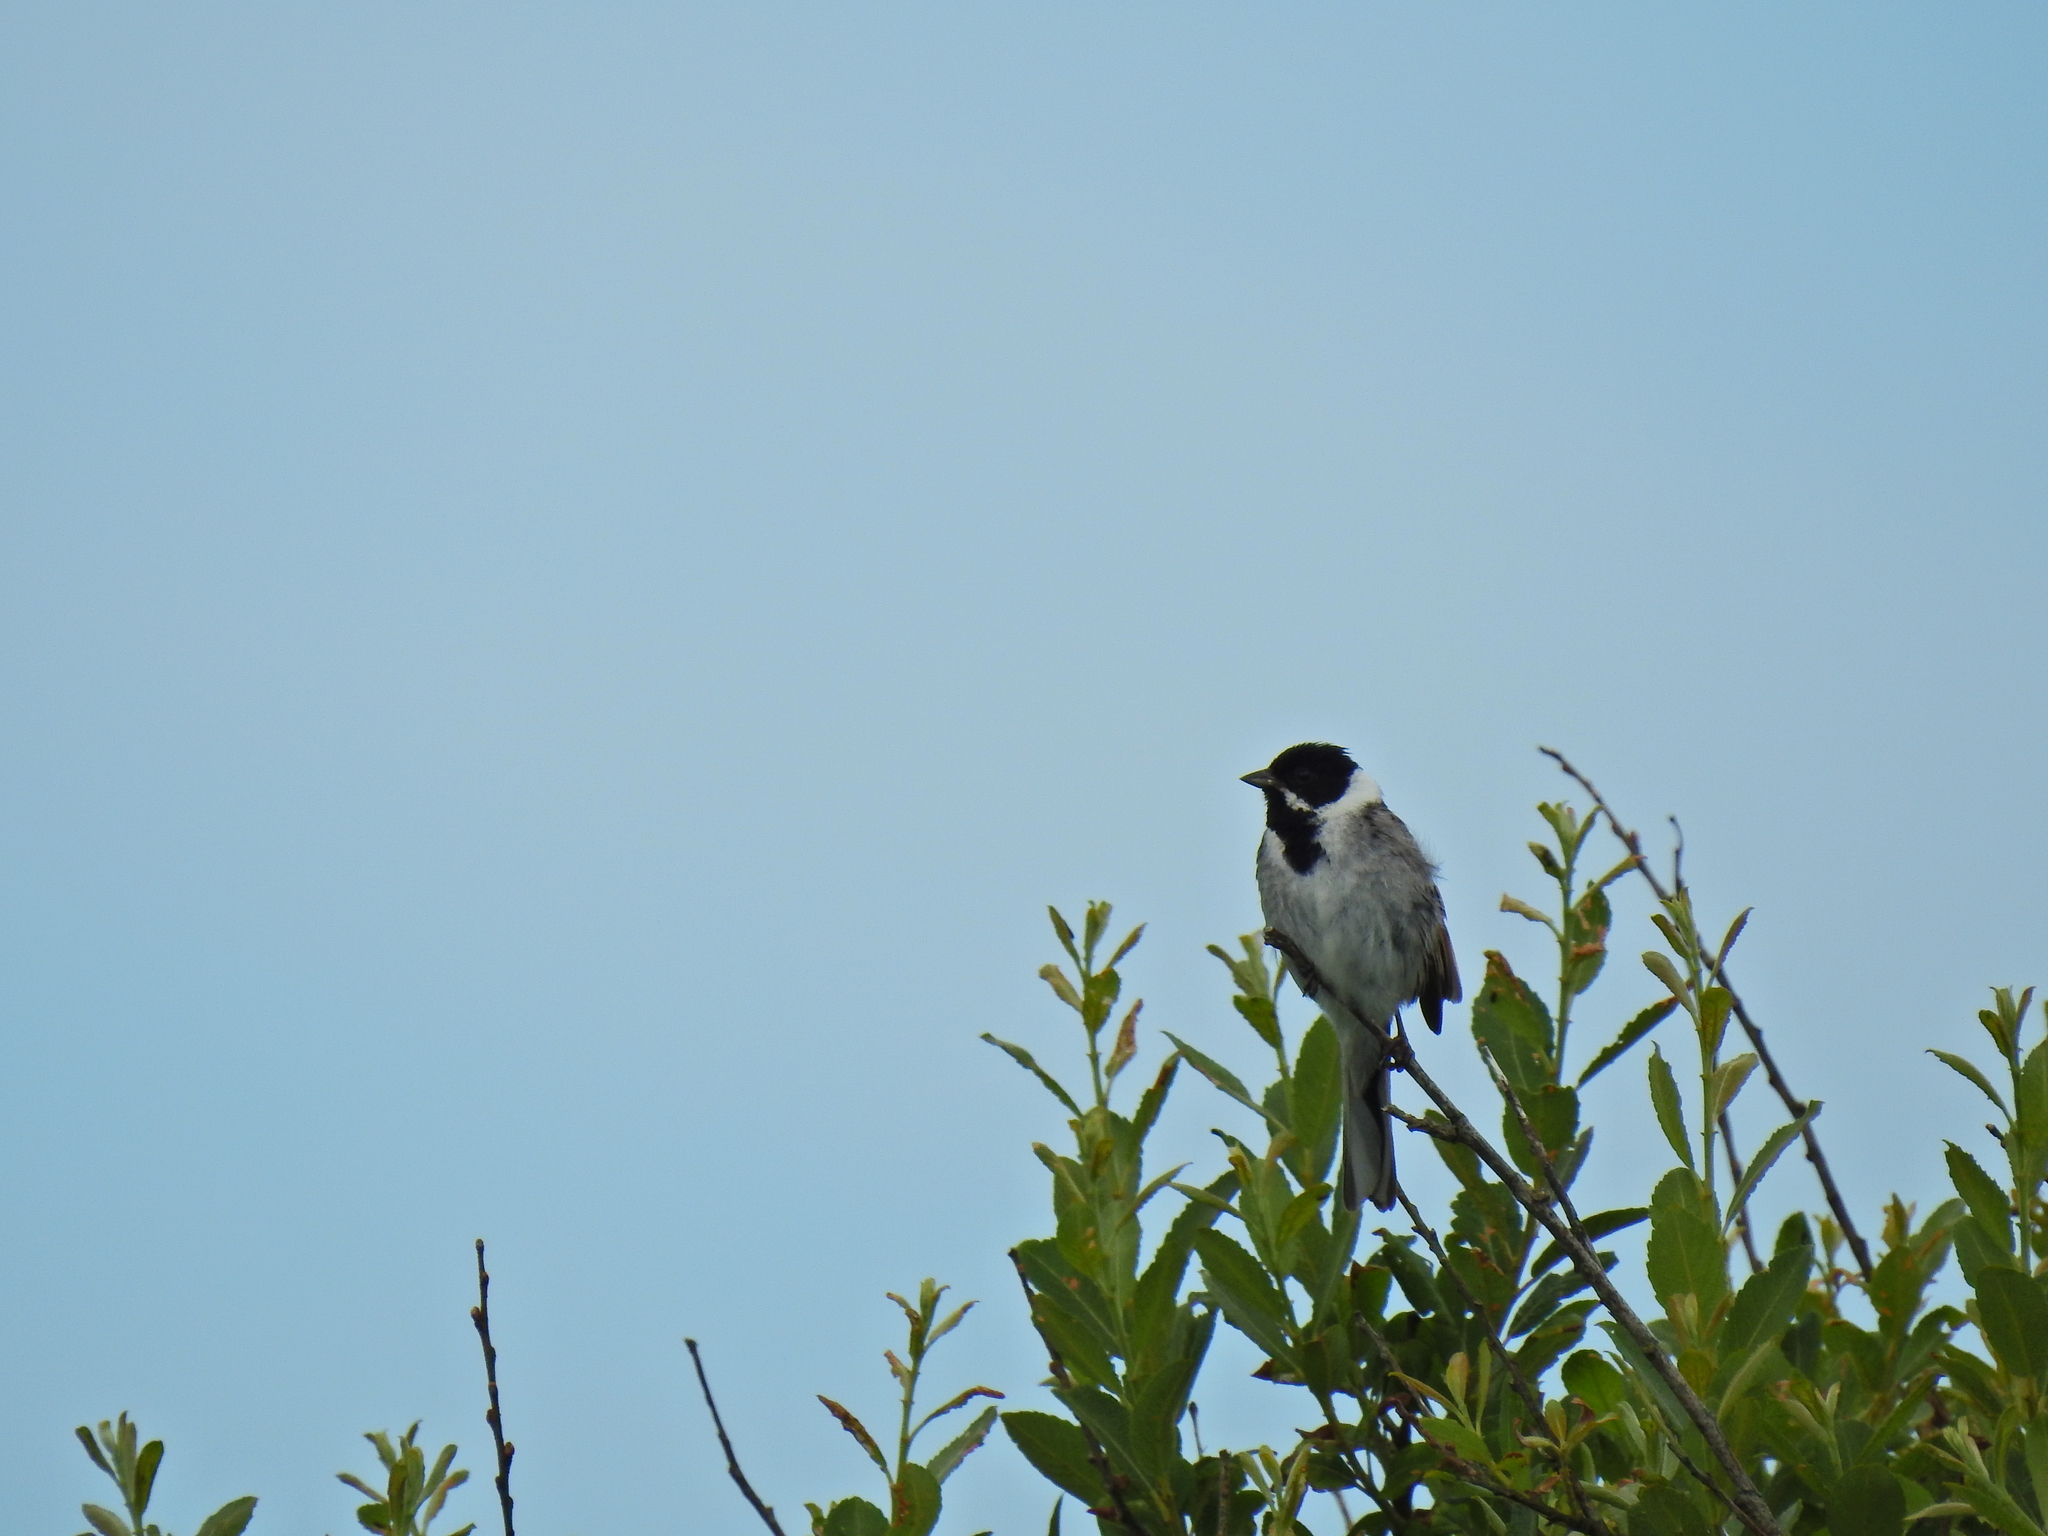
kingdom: Animalia
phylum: Chordata
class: Aves
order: Passeriformes
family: Emberizidae
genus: Emberiza
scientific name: Emberiza schoeniclus
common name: Reed bunting
